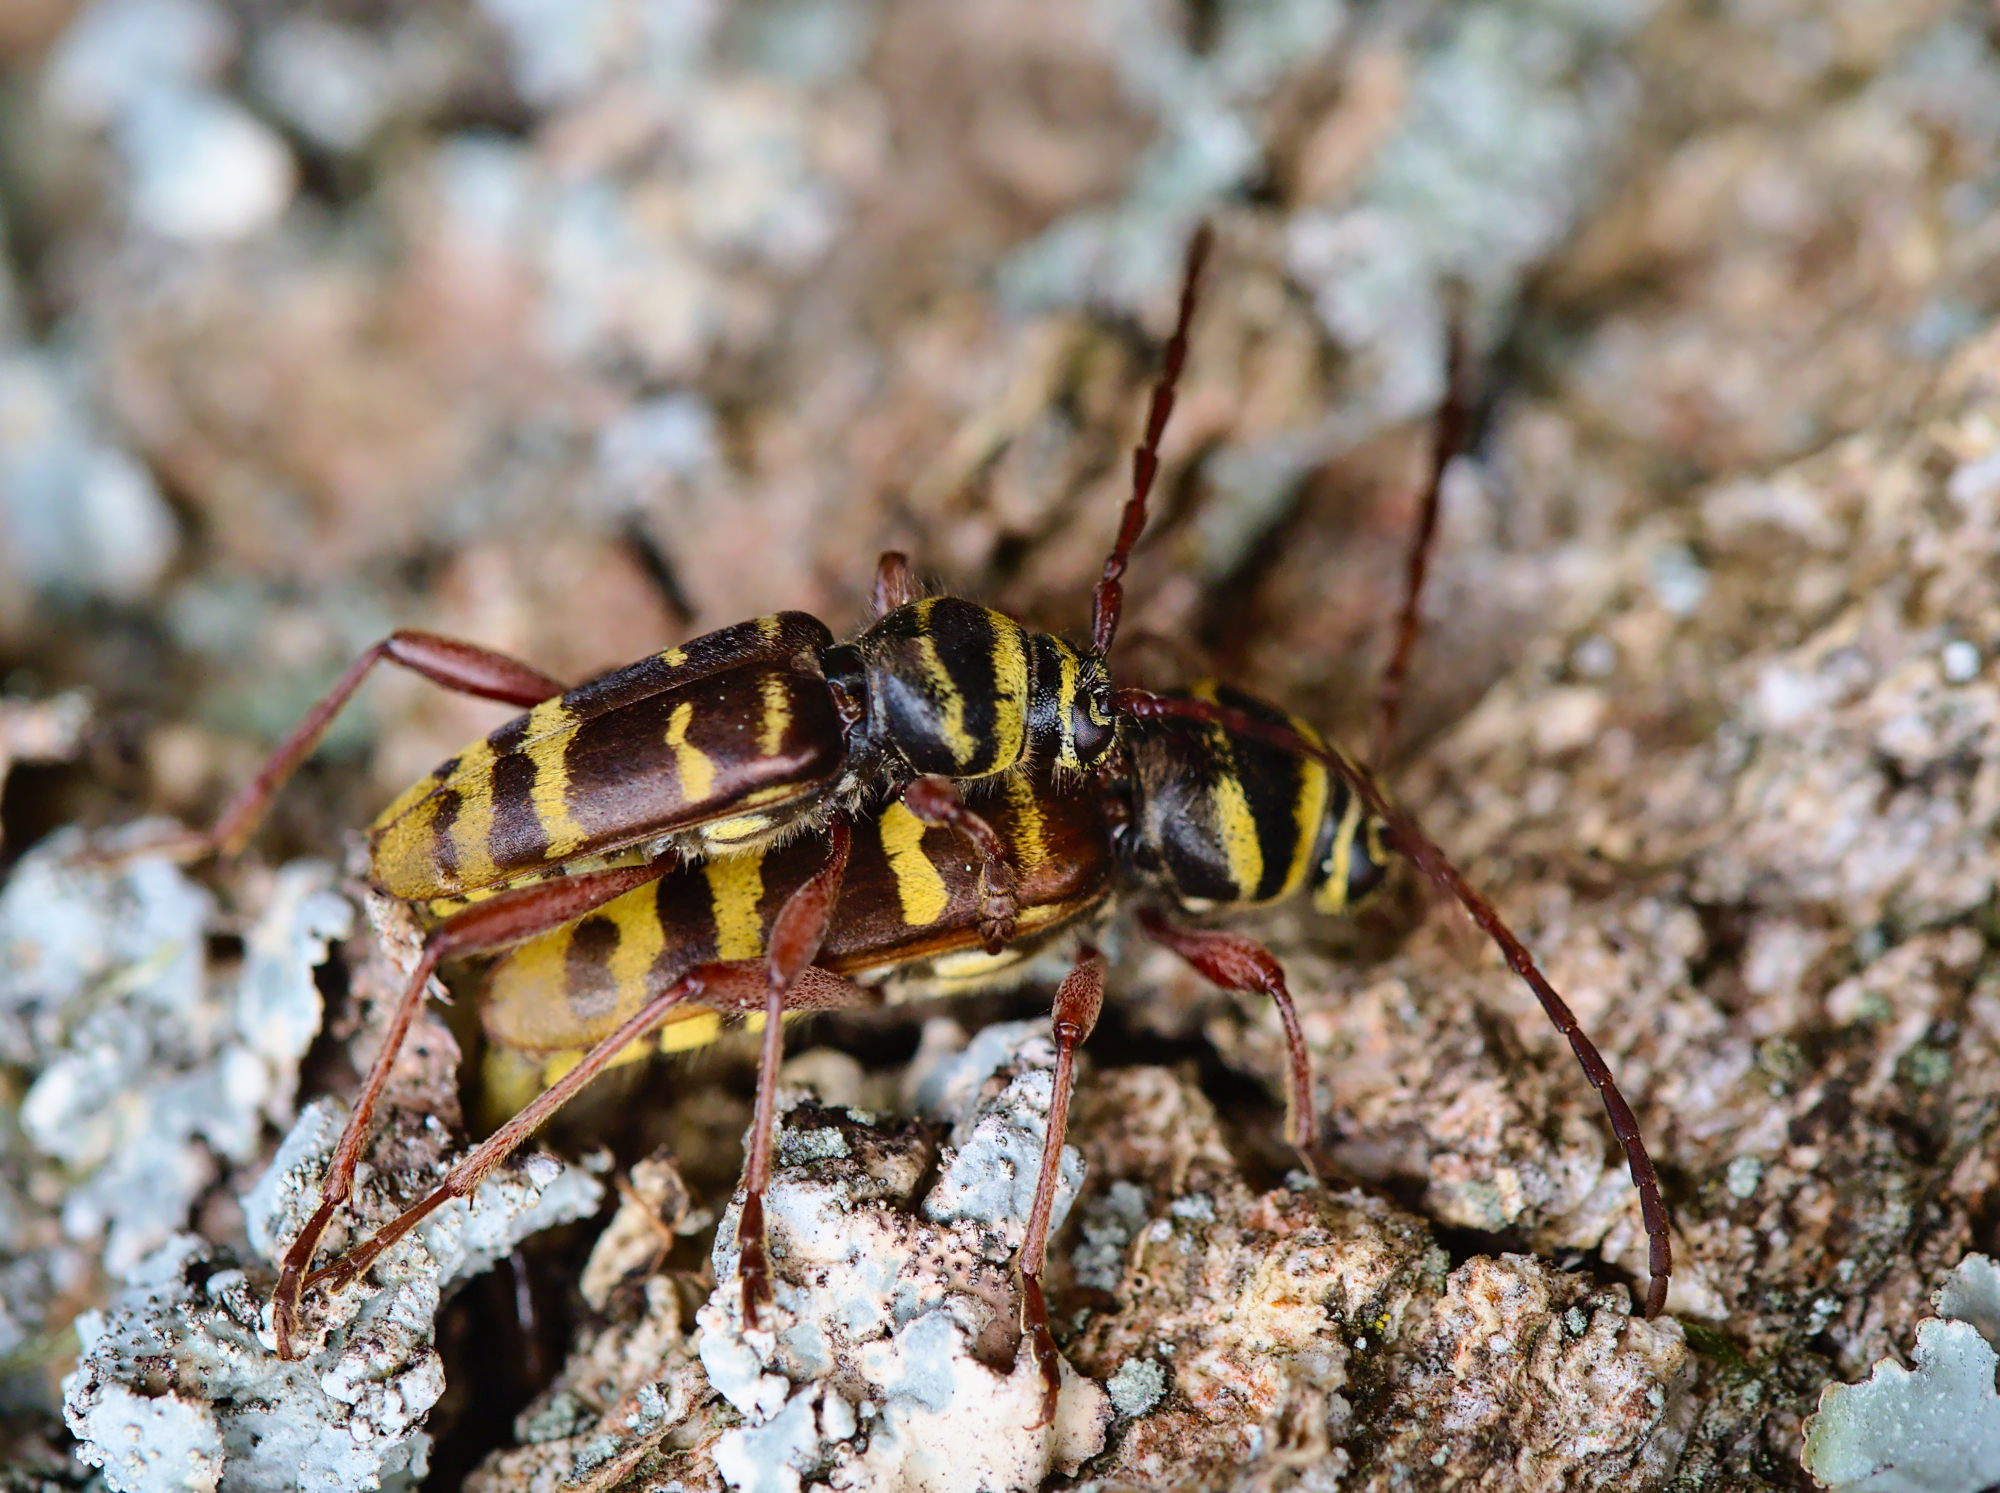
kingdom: Animalia
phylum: Arthropoda
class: Insecta
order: Coleoptera
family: Cerambycidae
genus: Plagionotus
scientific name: Plagionotus detritus
